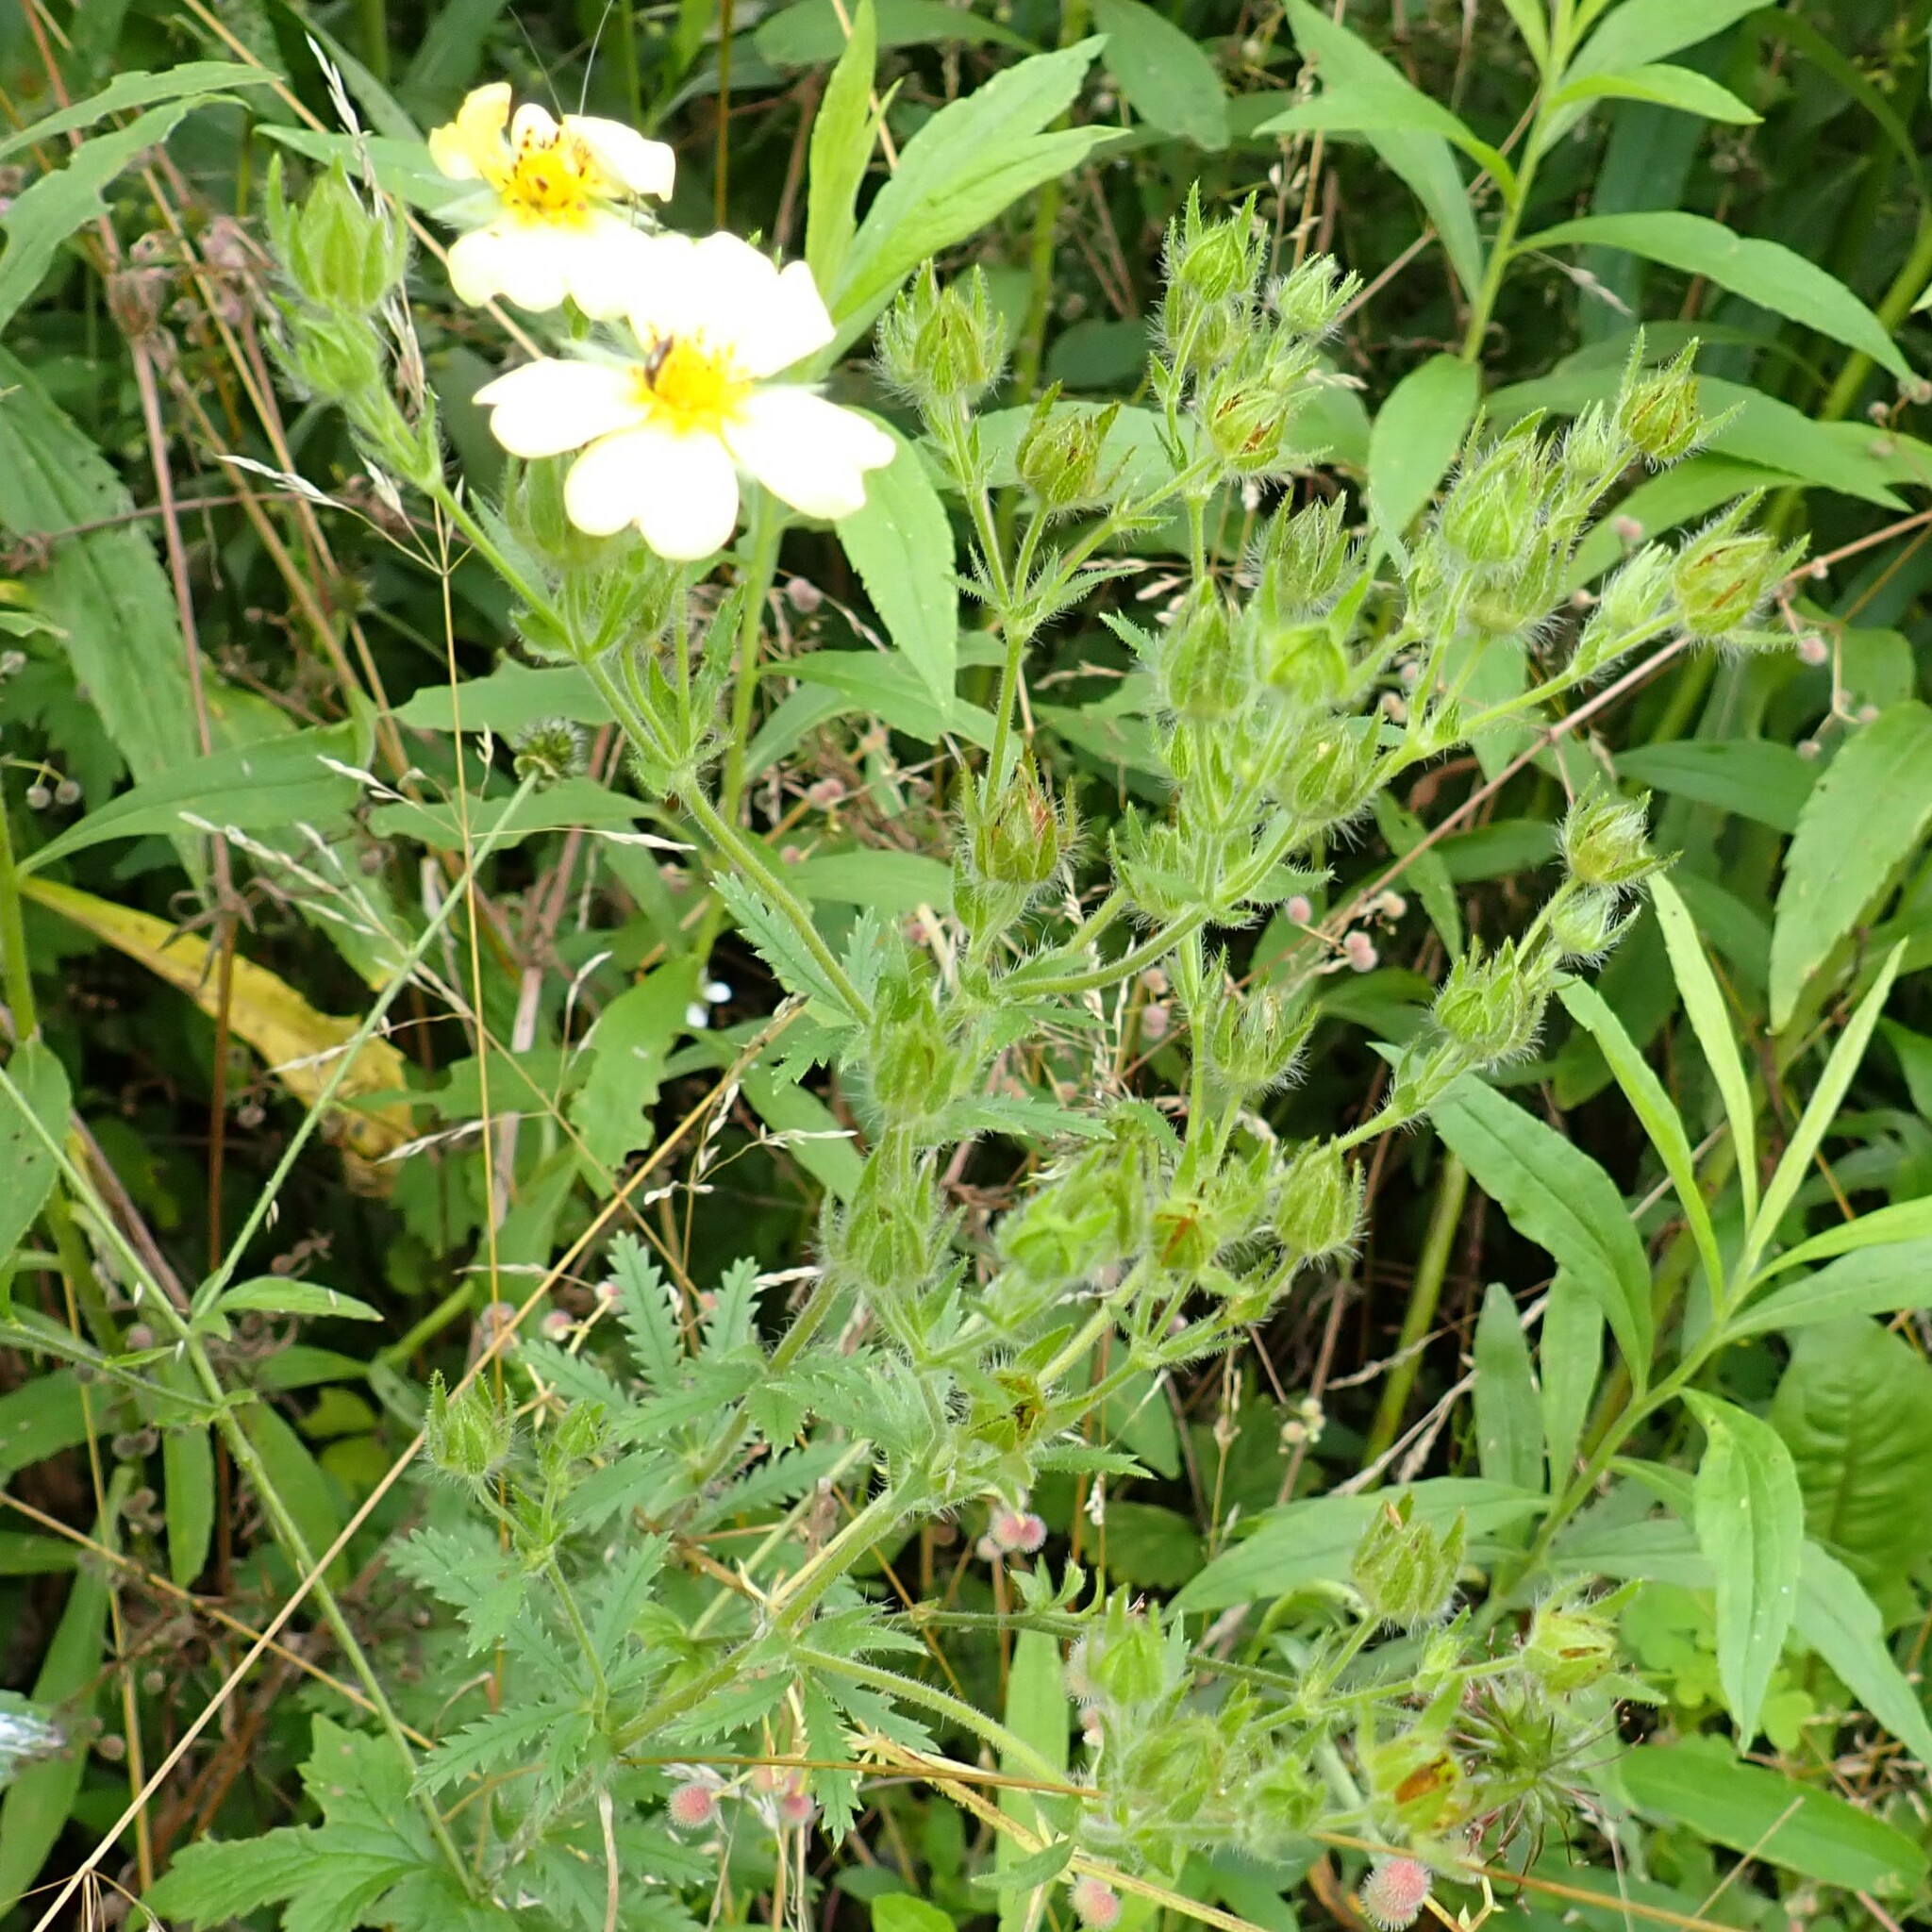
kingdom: Plantae
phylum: Tracheophyta
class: Magnoliopsida
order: Rosales
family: Rosaceae
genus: Potentilla
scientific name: Potentilla recta
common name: Sulphur cinquefoil
